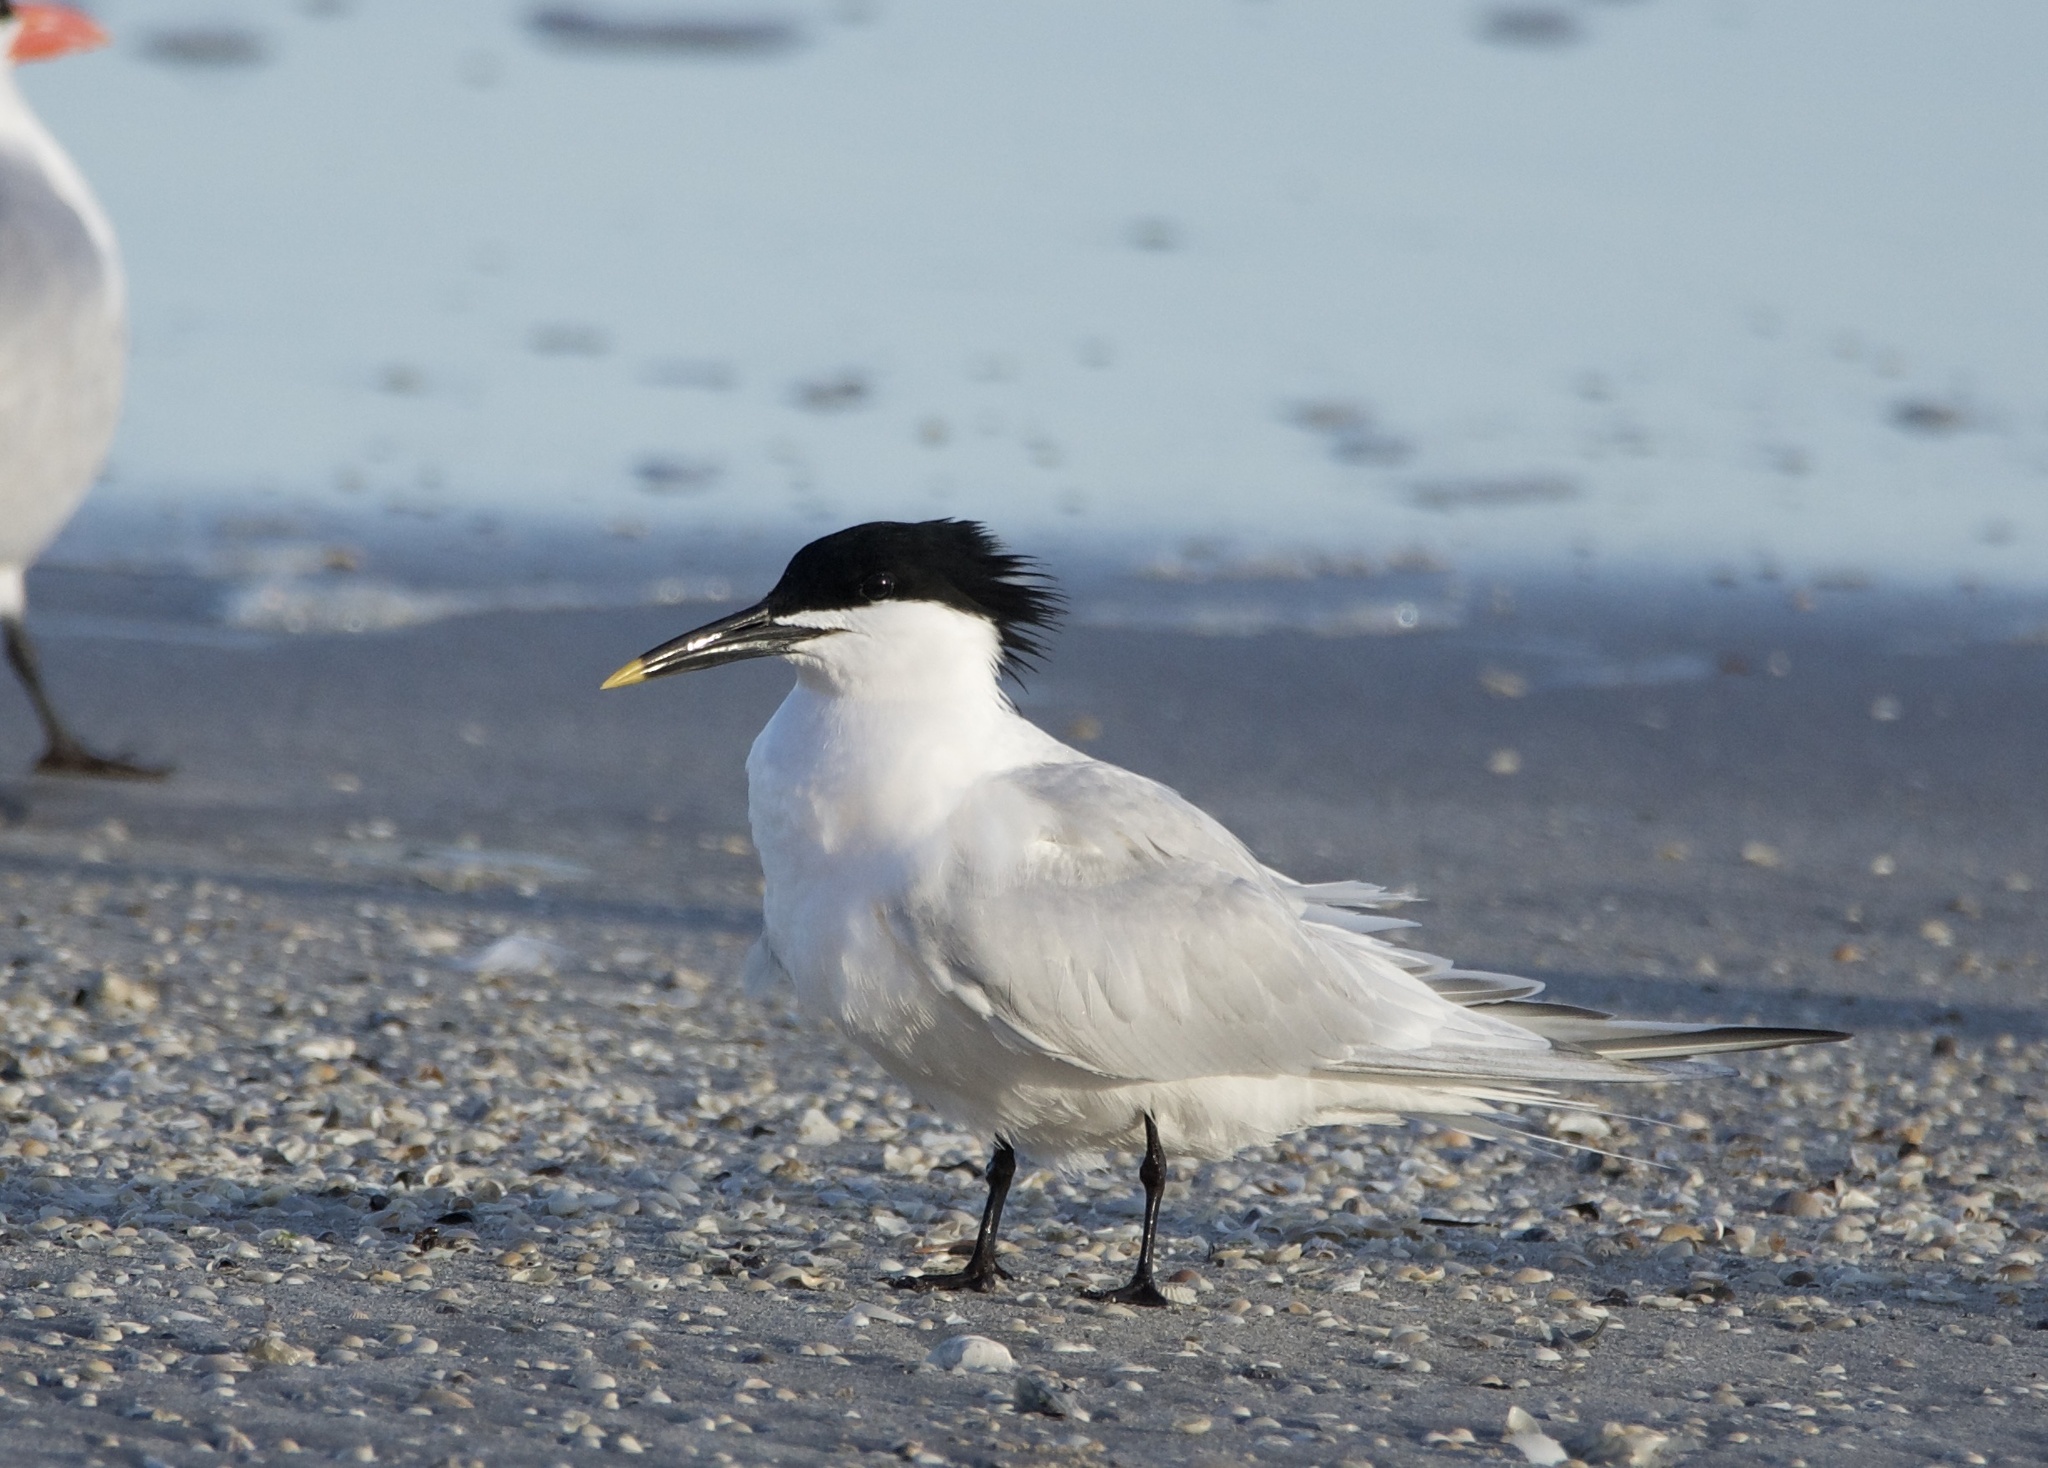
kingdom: Animalia
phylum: Chordata
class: Aves
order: Charadriiformes
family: Laridae
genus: Thalasseus
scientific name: Thalasseus sandvicensis
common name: Sandwich tern
